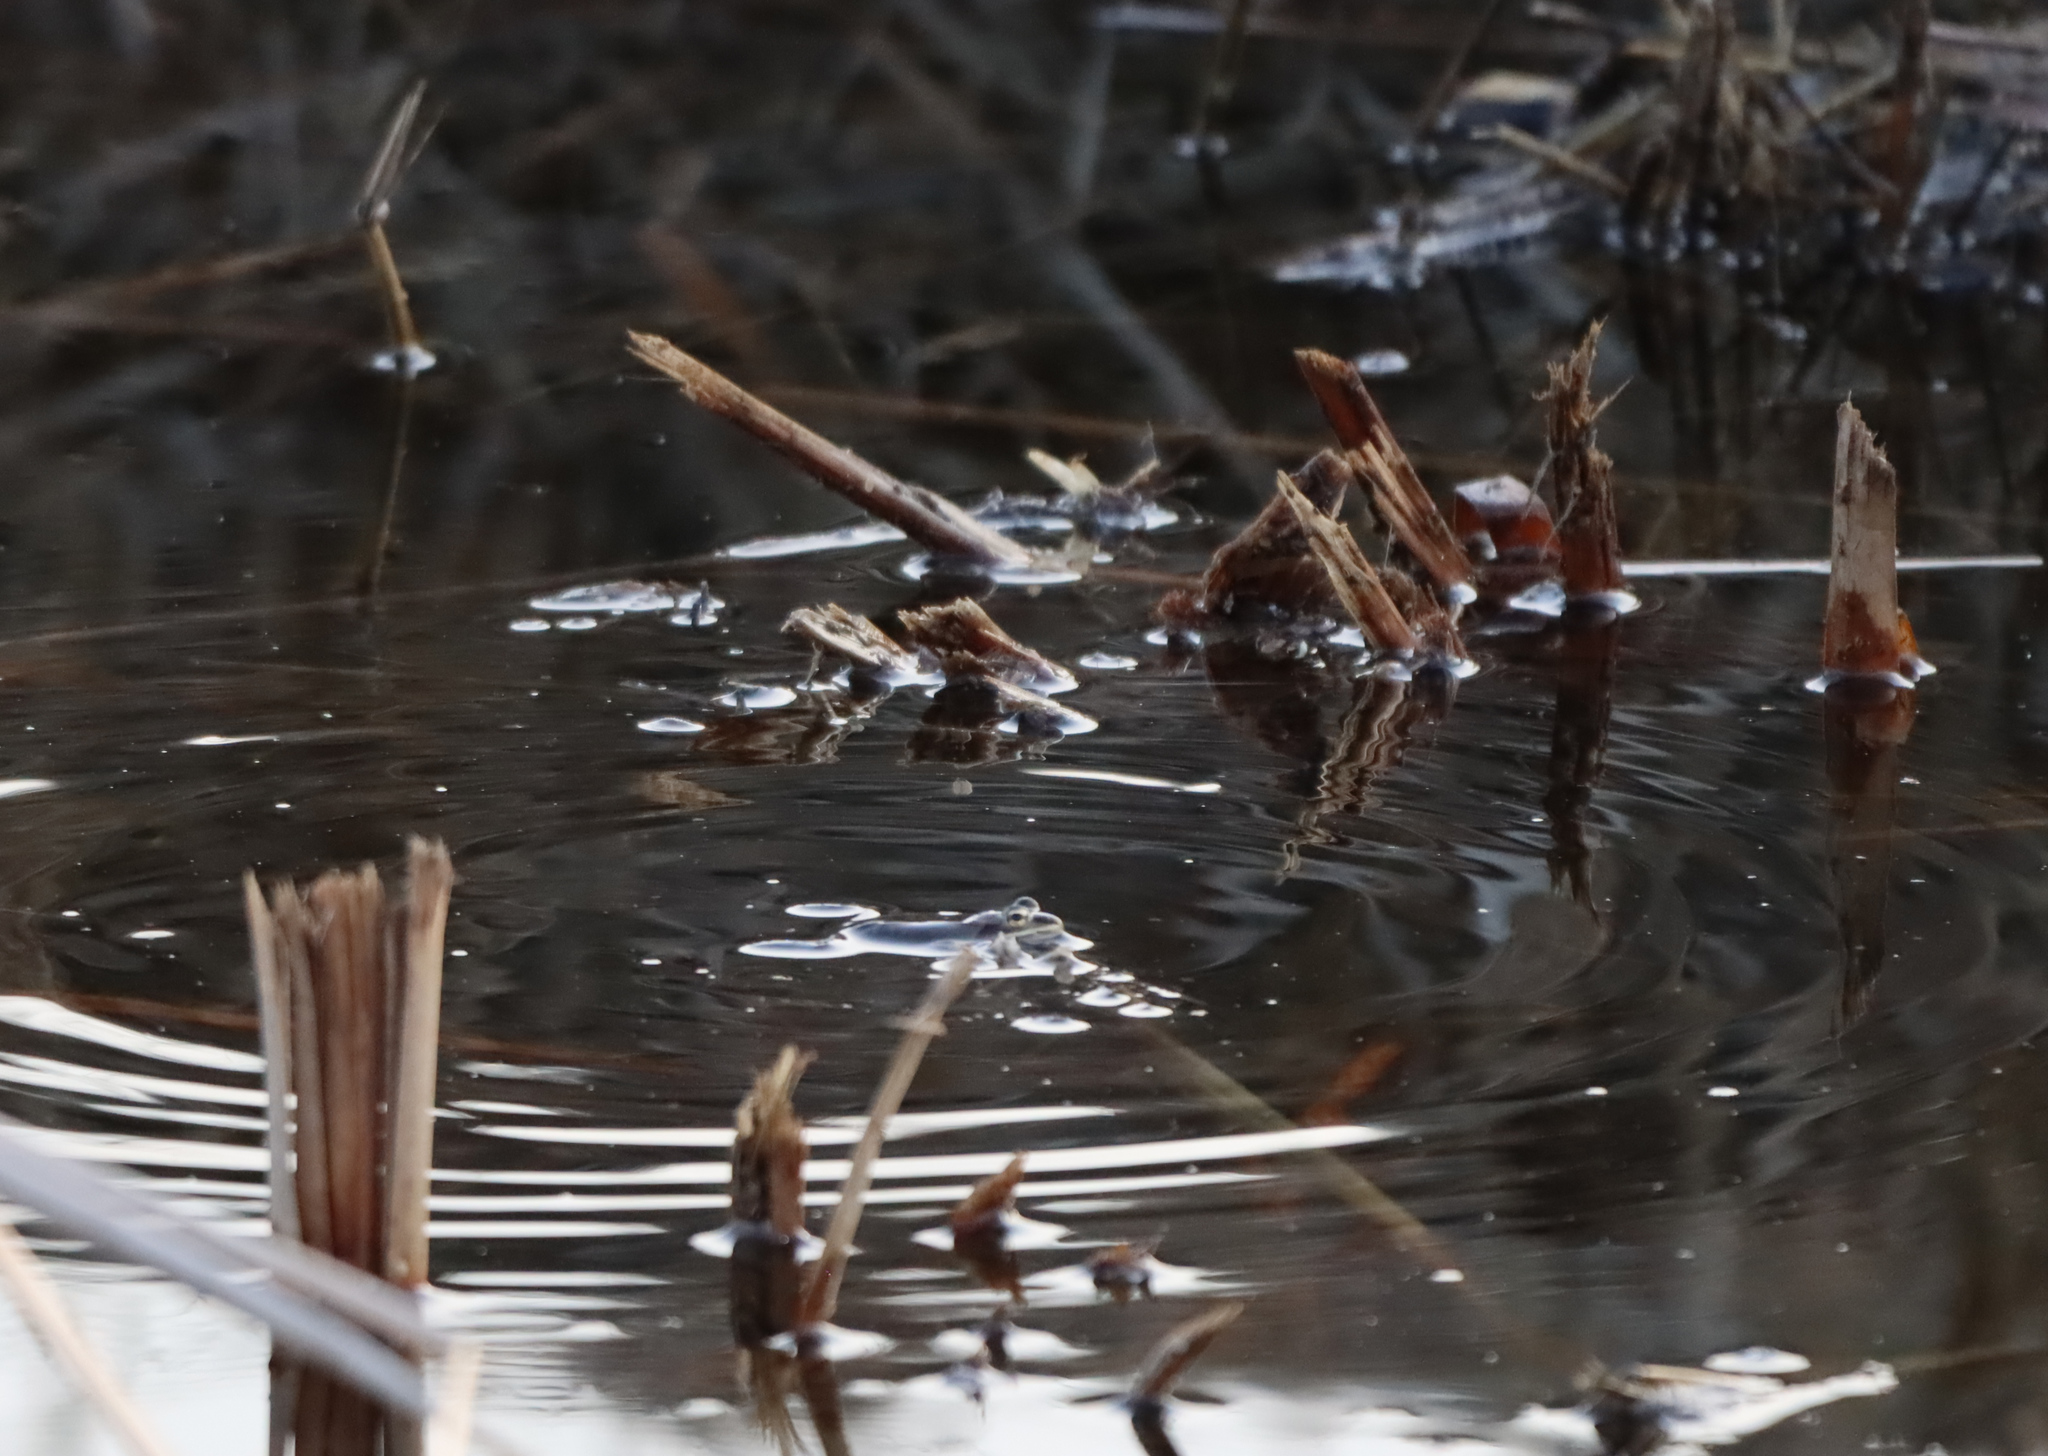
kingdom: Animalia
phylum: Chordata
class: Amphibia
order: Anura
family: Ranidae
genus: Lithobates
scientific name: Lithobates sylvaticus
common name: Wood frog
